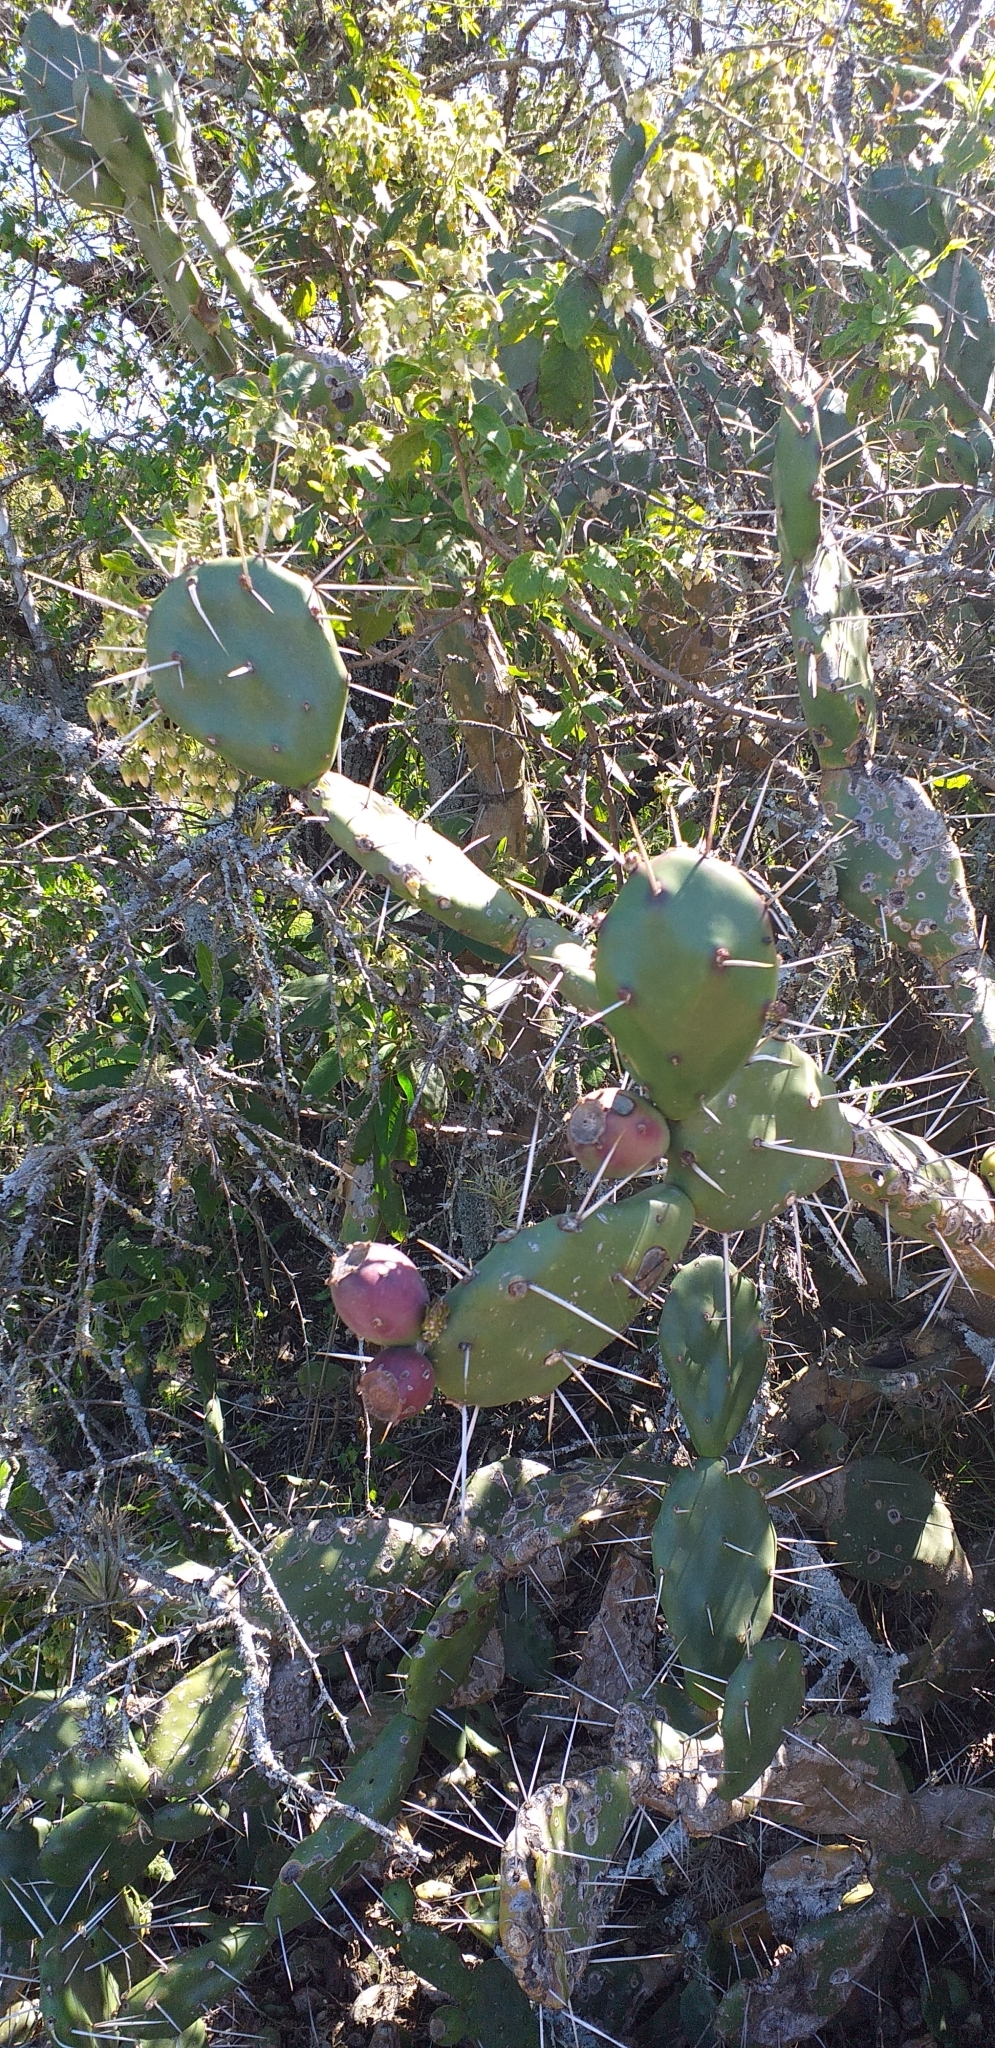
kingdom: Plantae
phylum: Tracheophyta
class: Magnoliopsida
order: Caryophyllales
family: Cactaceae
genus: Opuntia
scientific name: Opuntia elata
